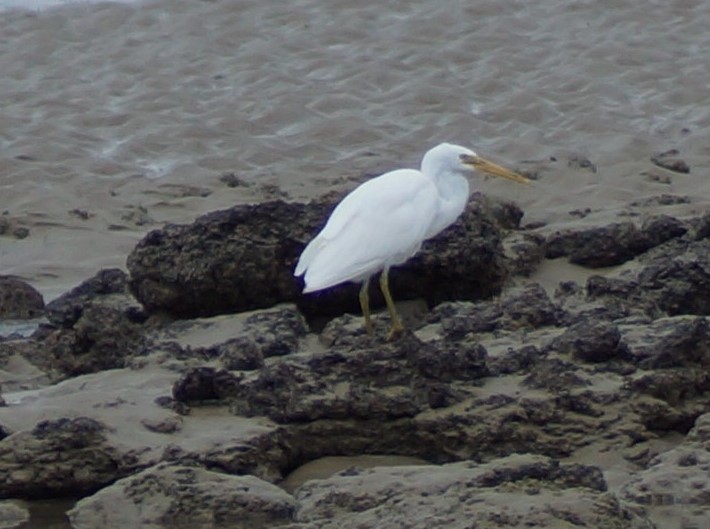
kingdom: Animalia
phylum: Chordata
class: Aves
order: Pelecaniformes
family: Ardeidae
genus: Egretta
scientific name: Egretta sacra
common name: Pacific reef heron
